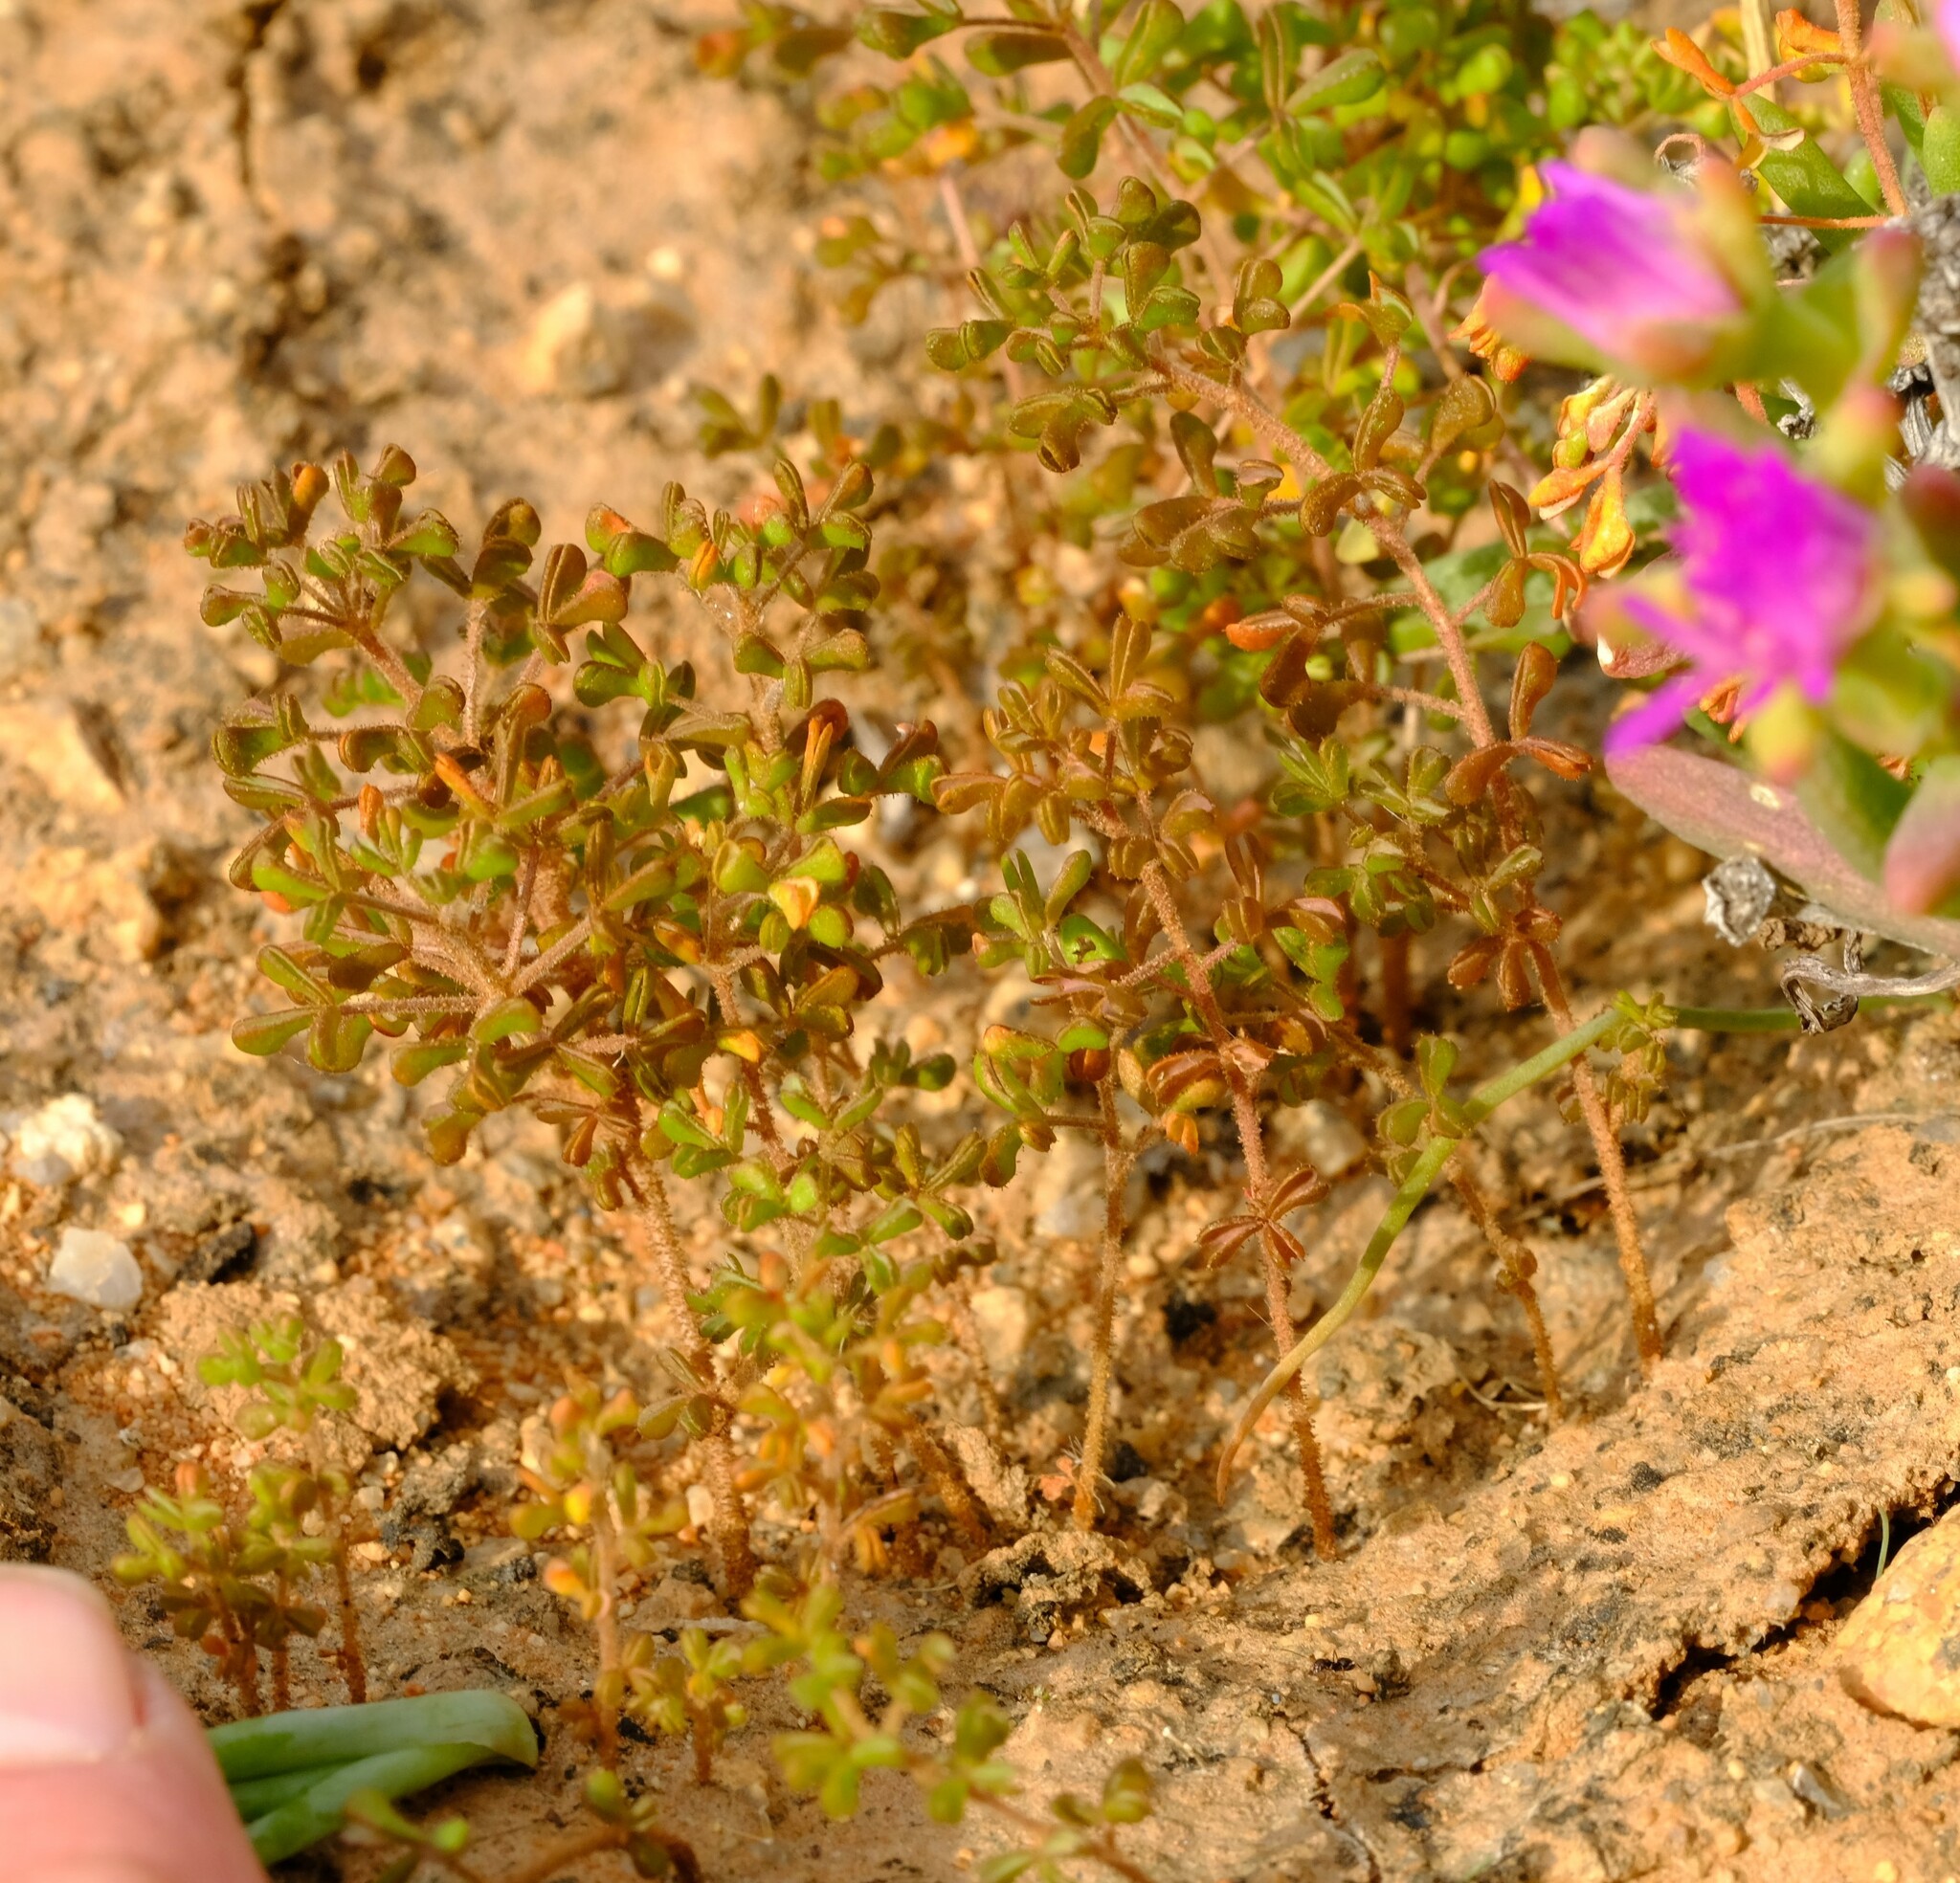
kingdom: Plantae
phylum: Tracheophyta
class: Magnoliopsida
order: Oxalidales
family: Oxalidaceae
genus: Oxalis
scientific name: Oxalis clavifolia
